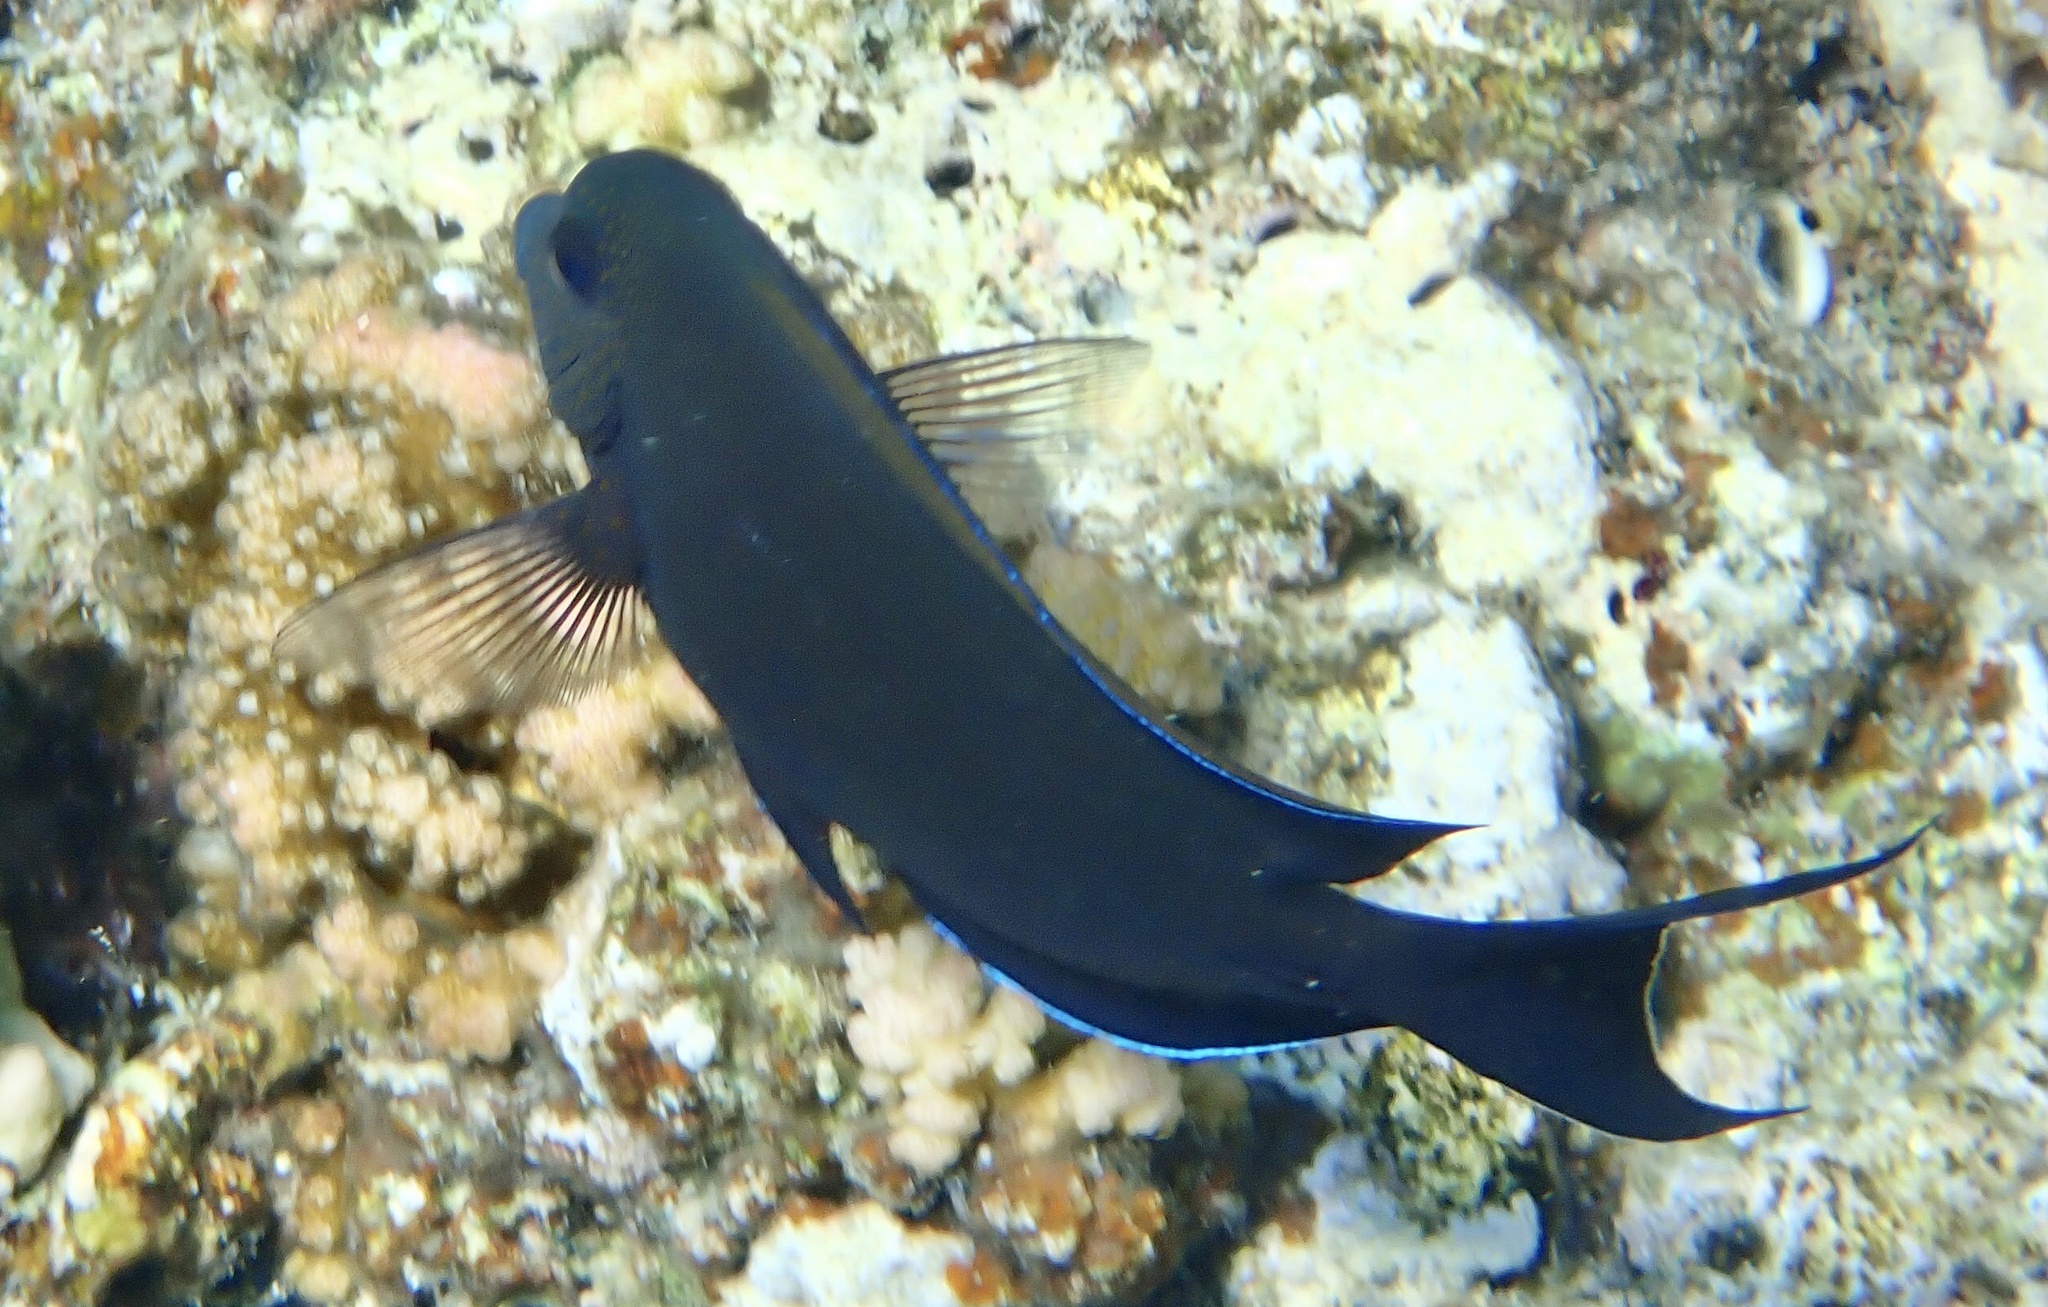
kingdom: Animalia
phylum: Chordata
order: Perciformes
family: Acanthuridae
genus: Acanthurus
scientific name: Acanthurus nigrofuscus
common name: Blackspot surgeonfish
